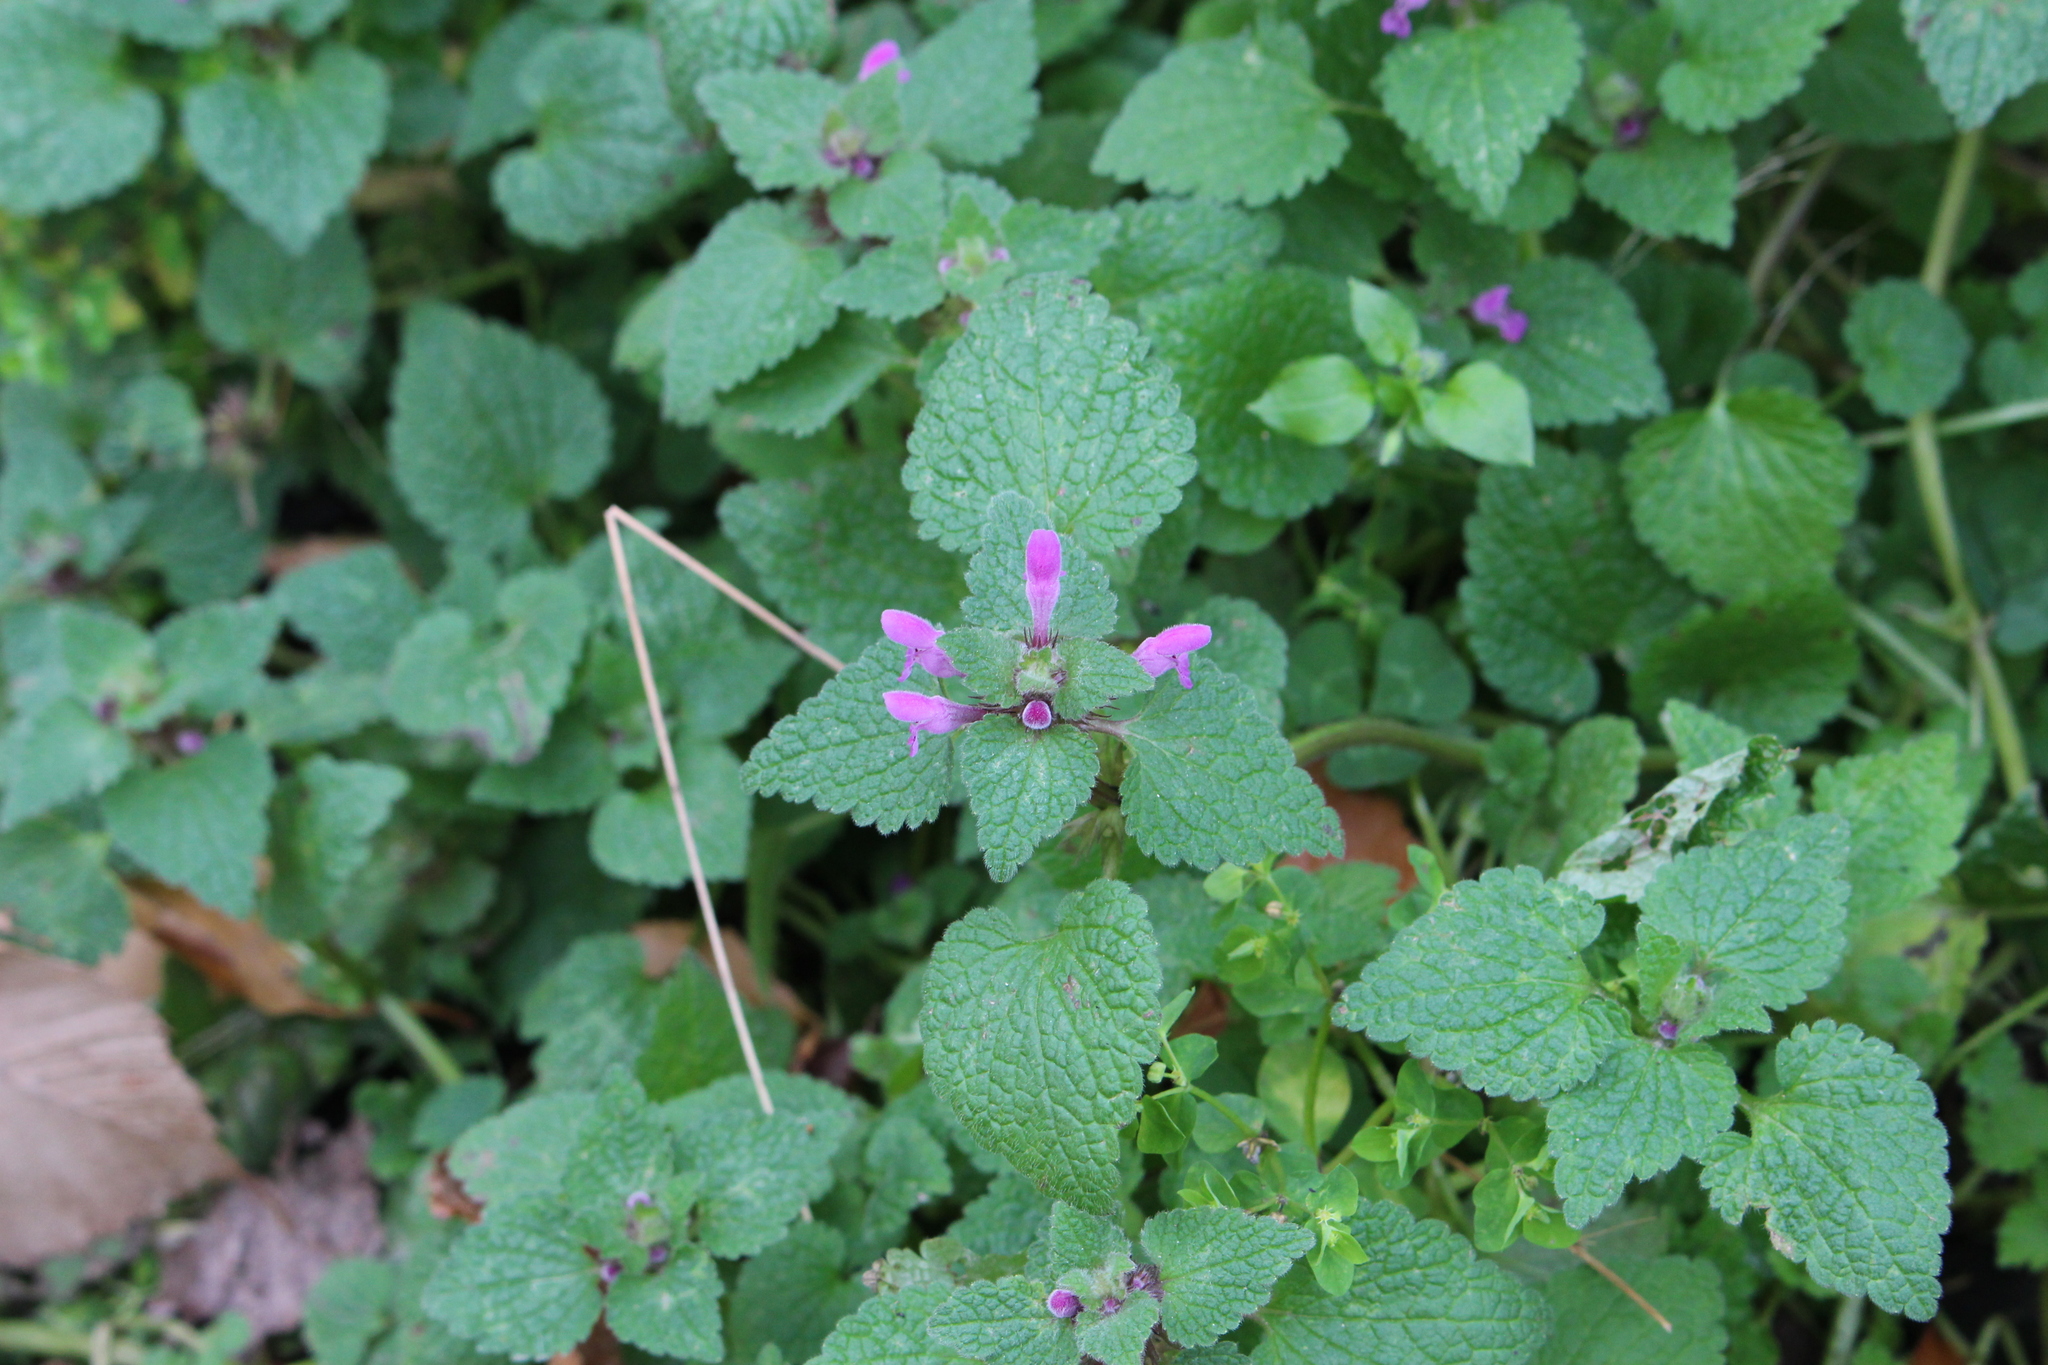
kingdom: Plantae
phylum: Tracheophyta
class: Magnoliopsida
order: Lamiales
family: Lamiaceae
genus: Lamium
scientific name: Lamium purpureum
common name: Red dead-nettle
